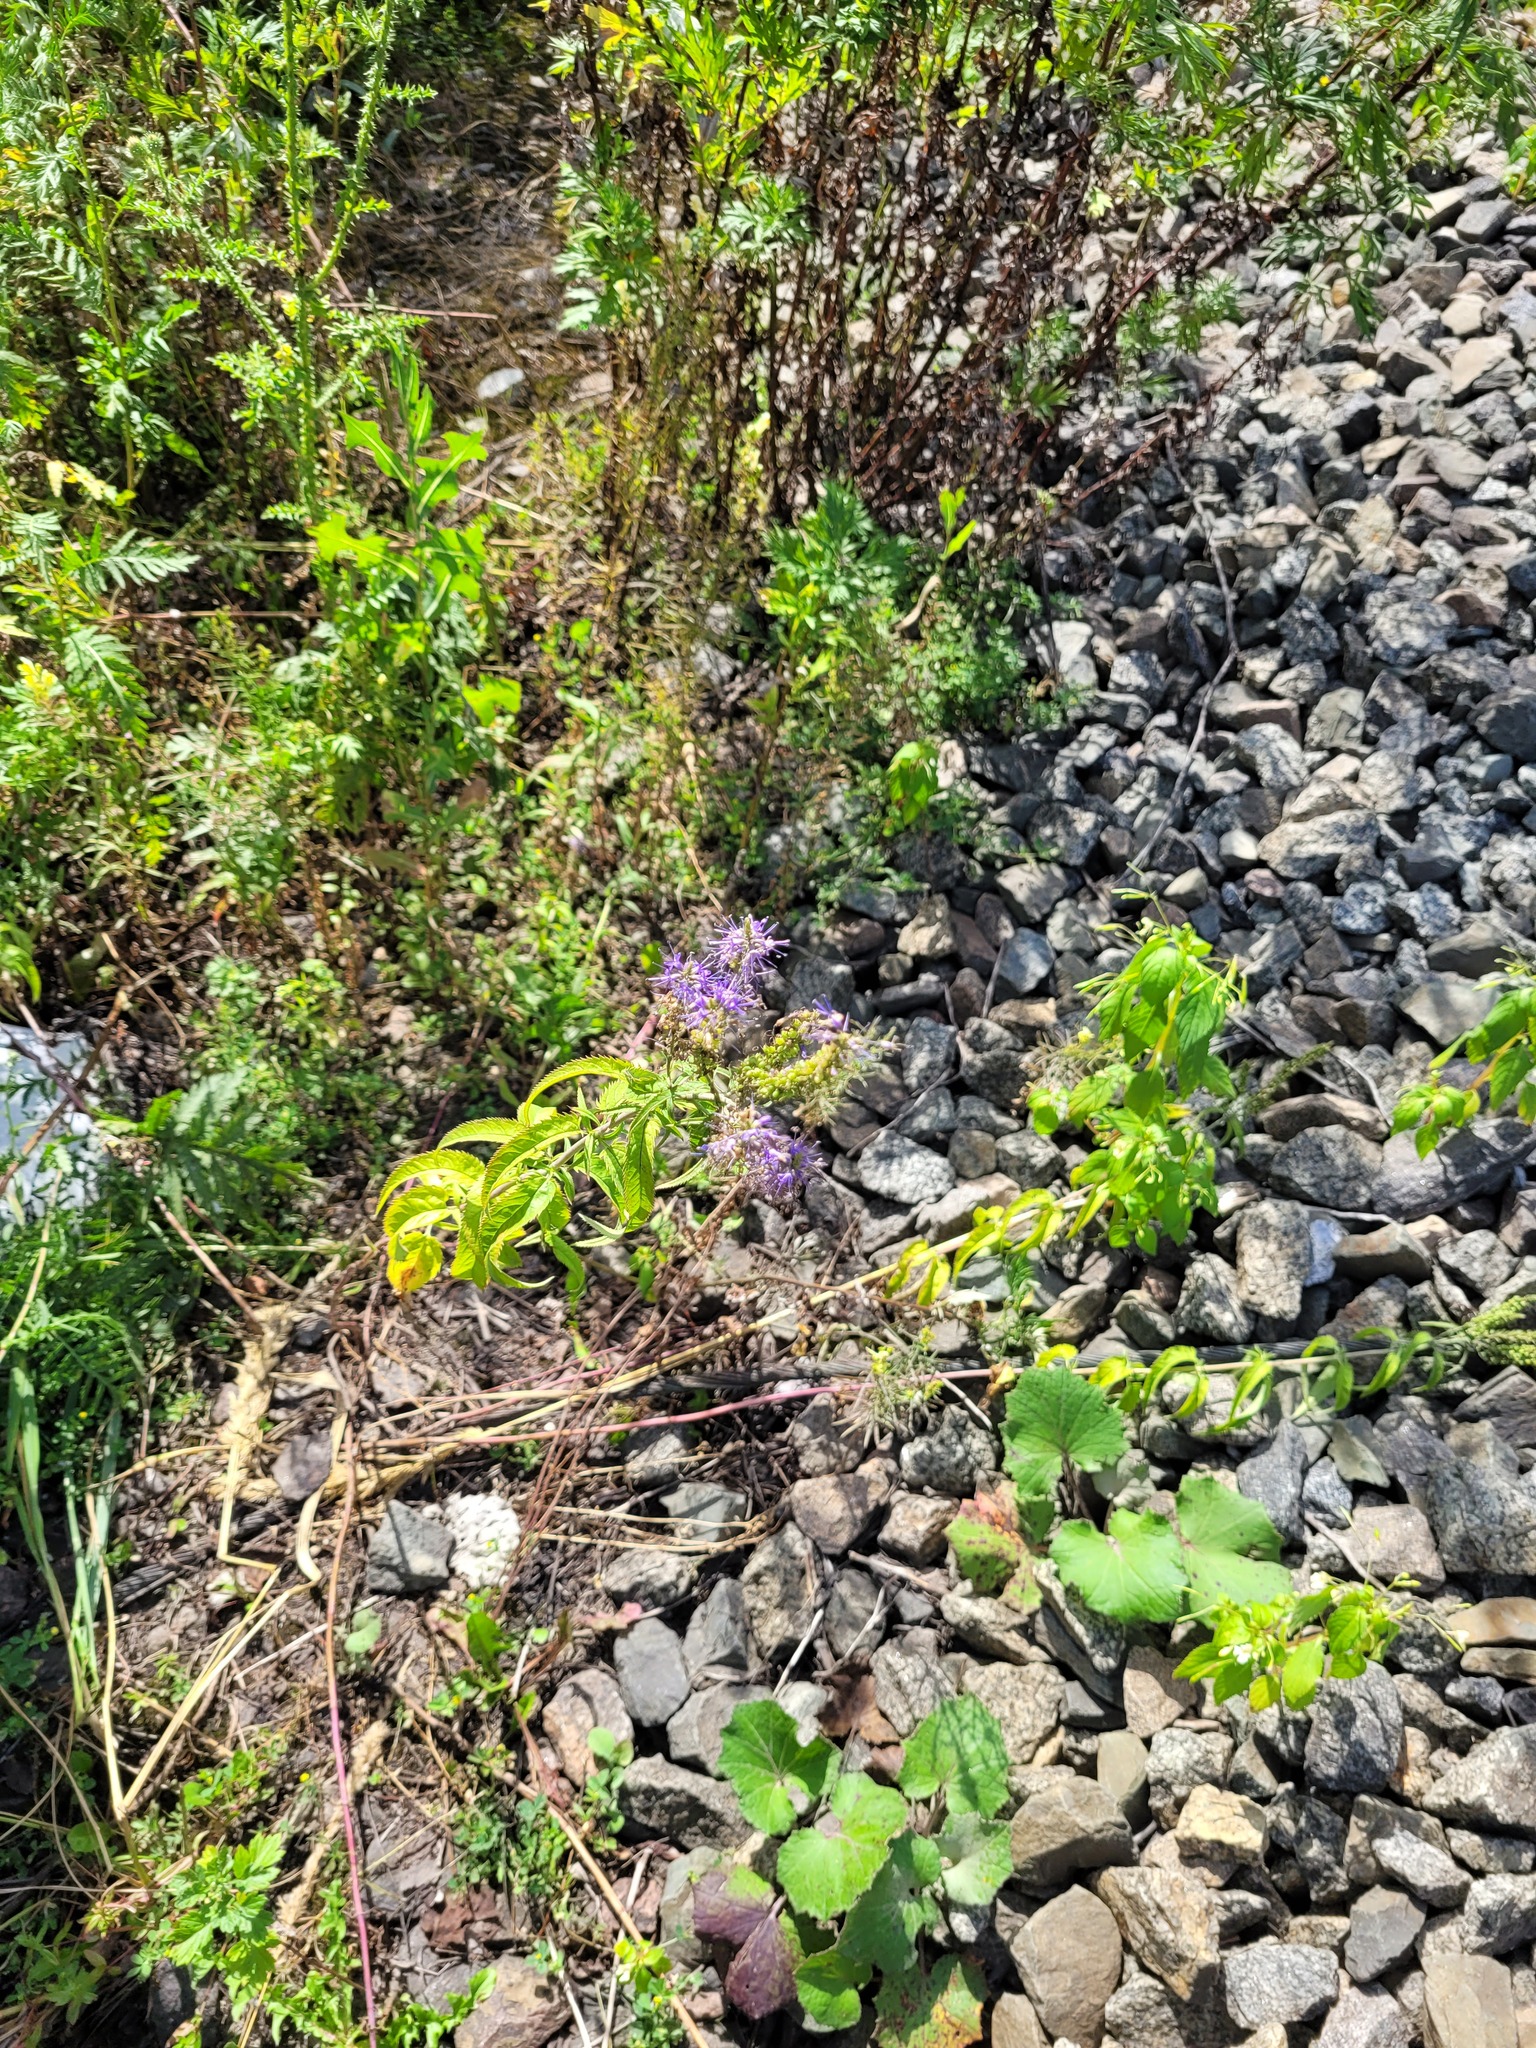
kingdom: Plantae
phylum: Tracheophyta
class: Magnoliopsida
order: Lamiales
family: Plantaginaceae
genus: Veronica
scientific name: Veronica longifolia
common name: Garden speedwell
